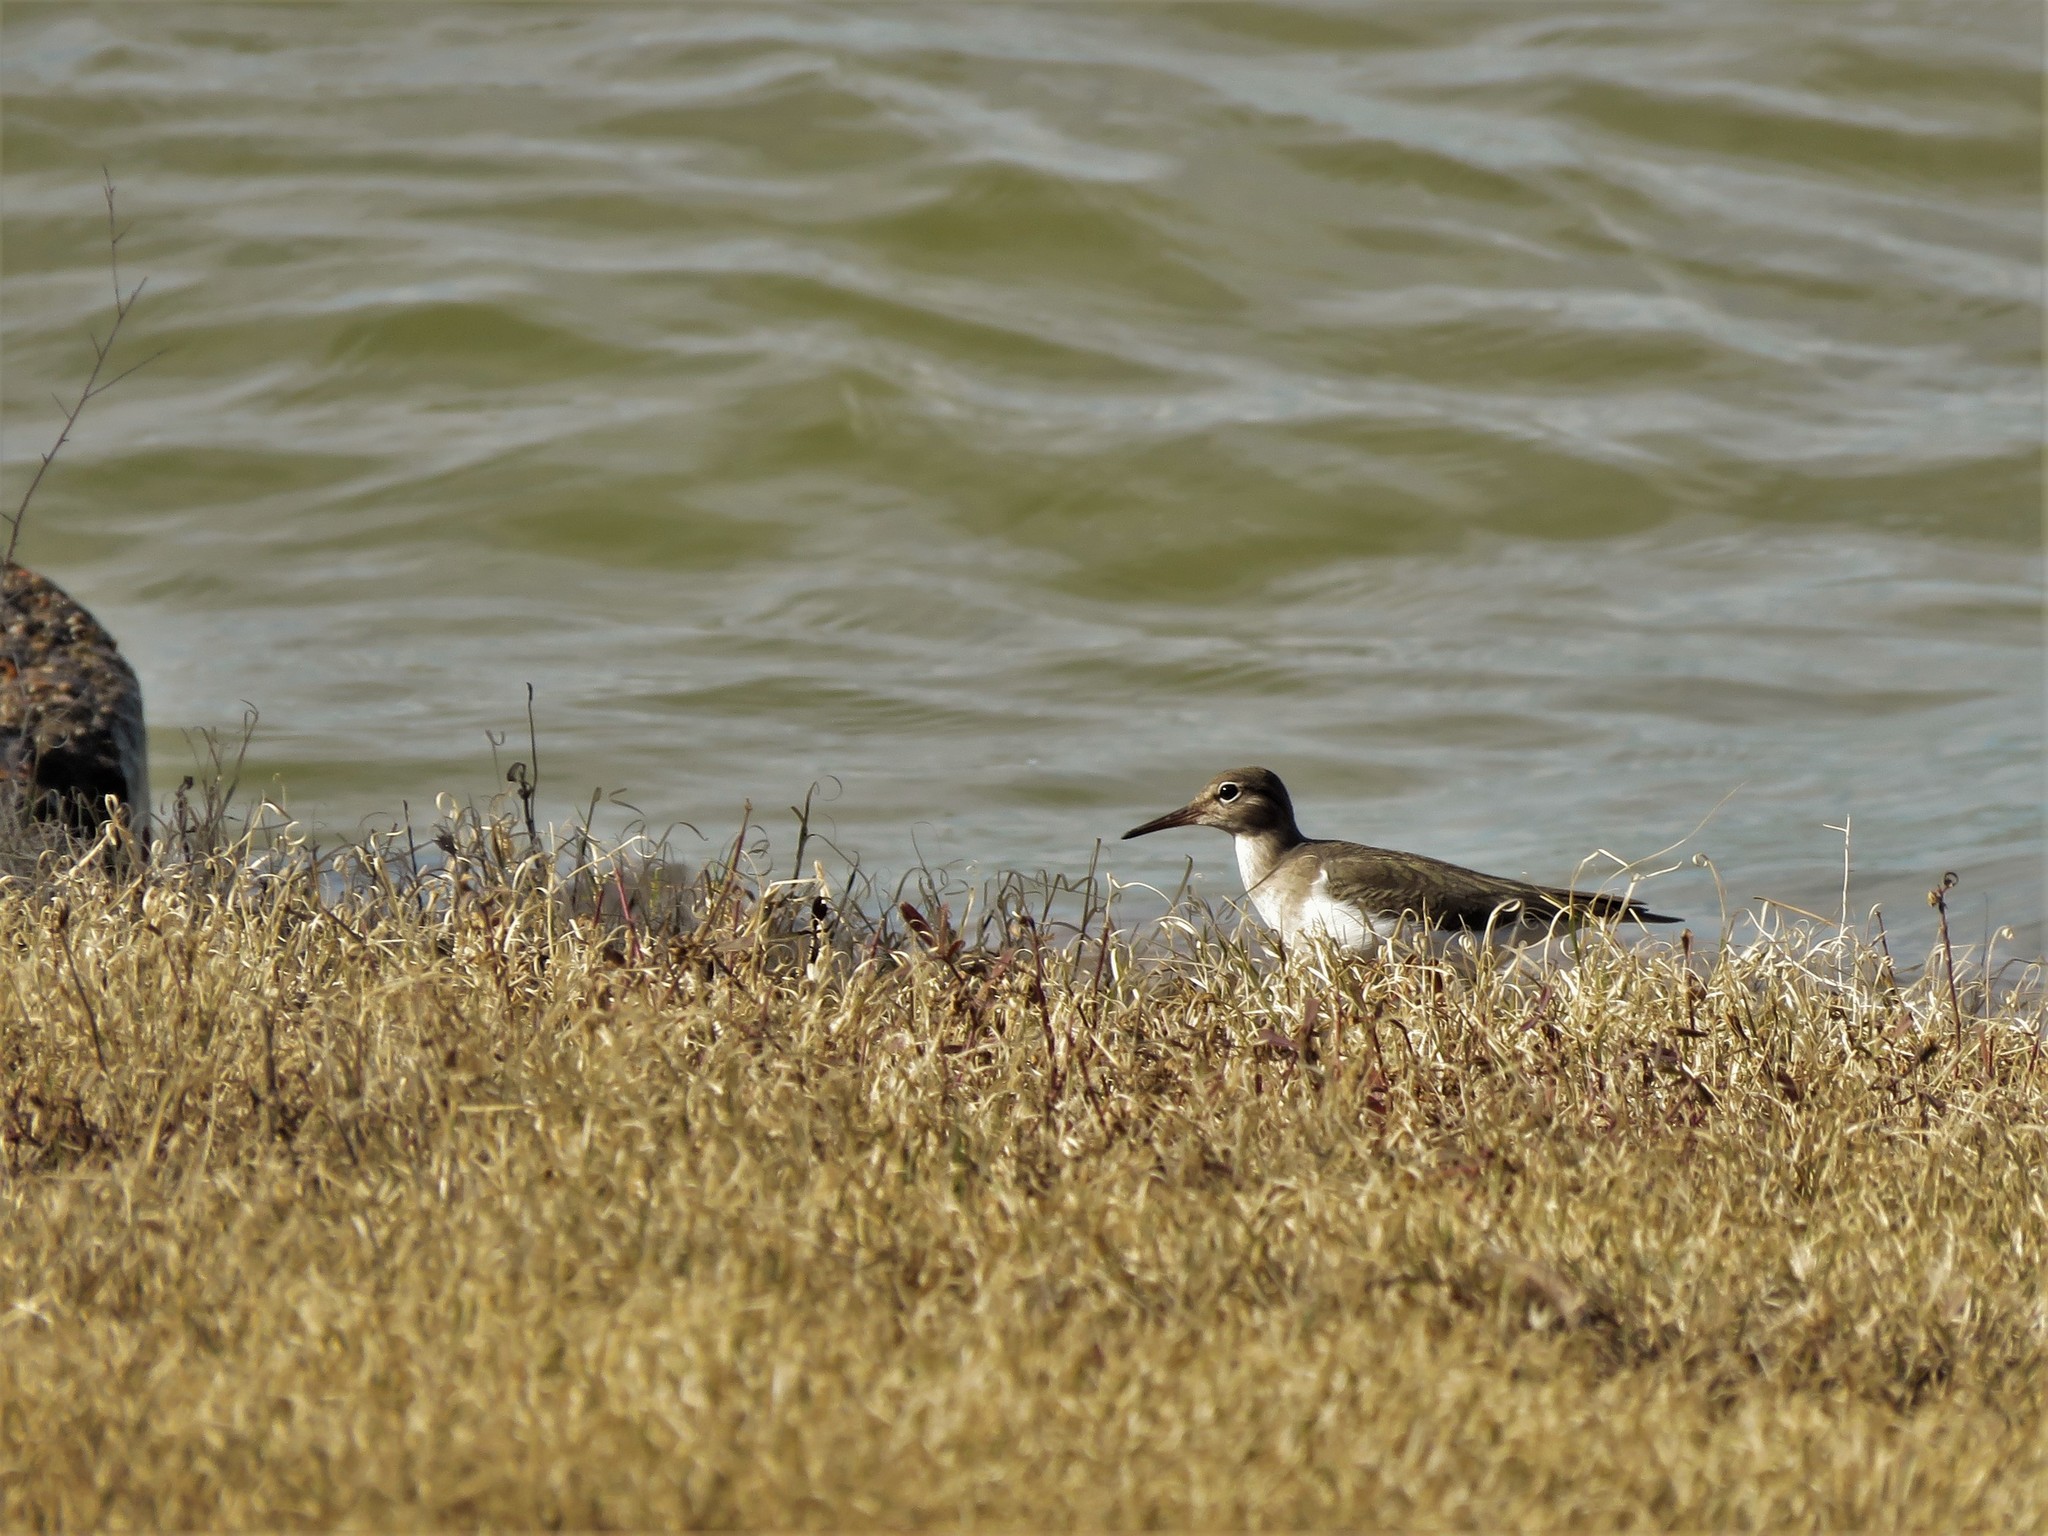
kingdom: Animalia
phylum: Chordata
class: Aves
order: Charadriiformes
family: Scolopacidae
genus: Actitis
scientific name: Actitis macularius
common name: Spotted sandpiper
